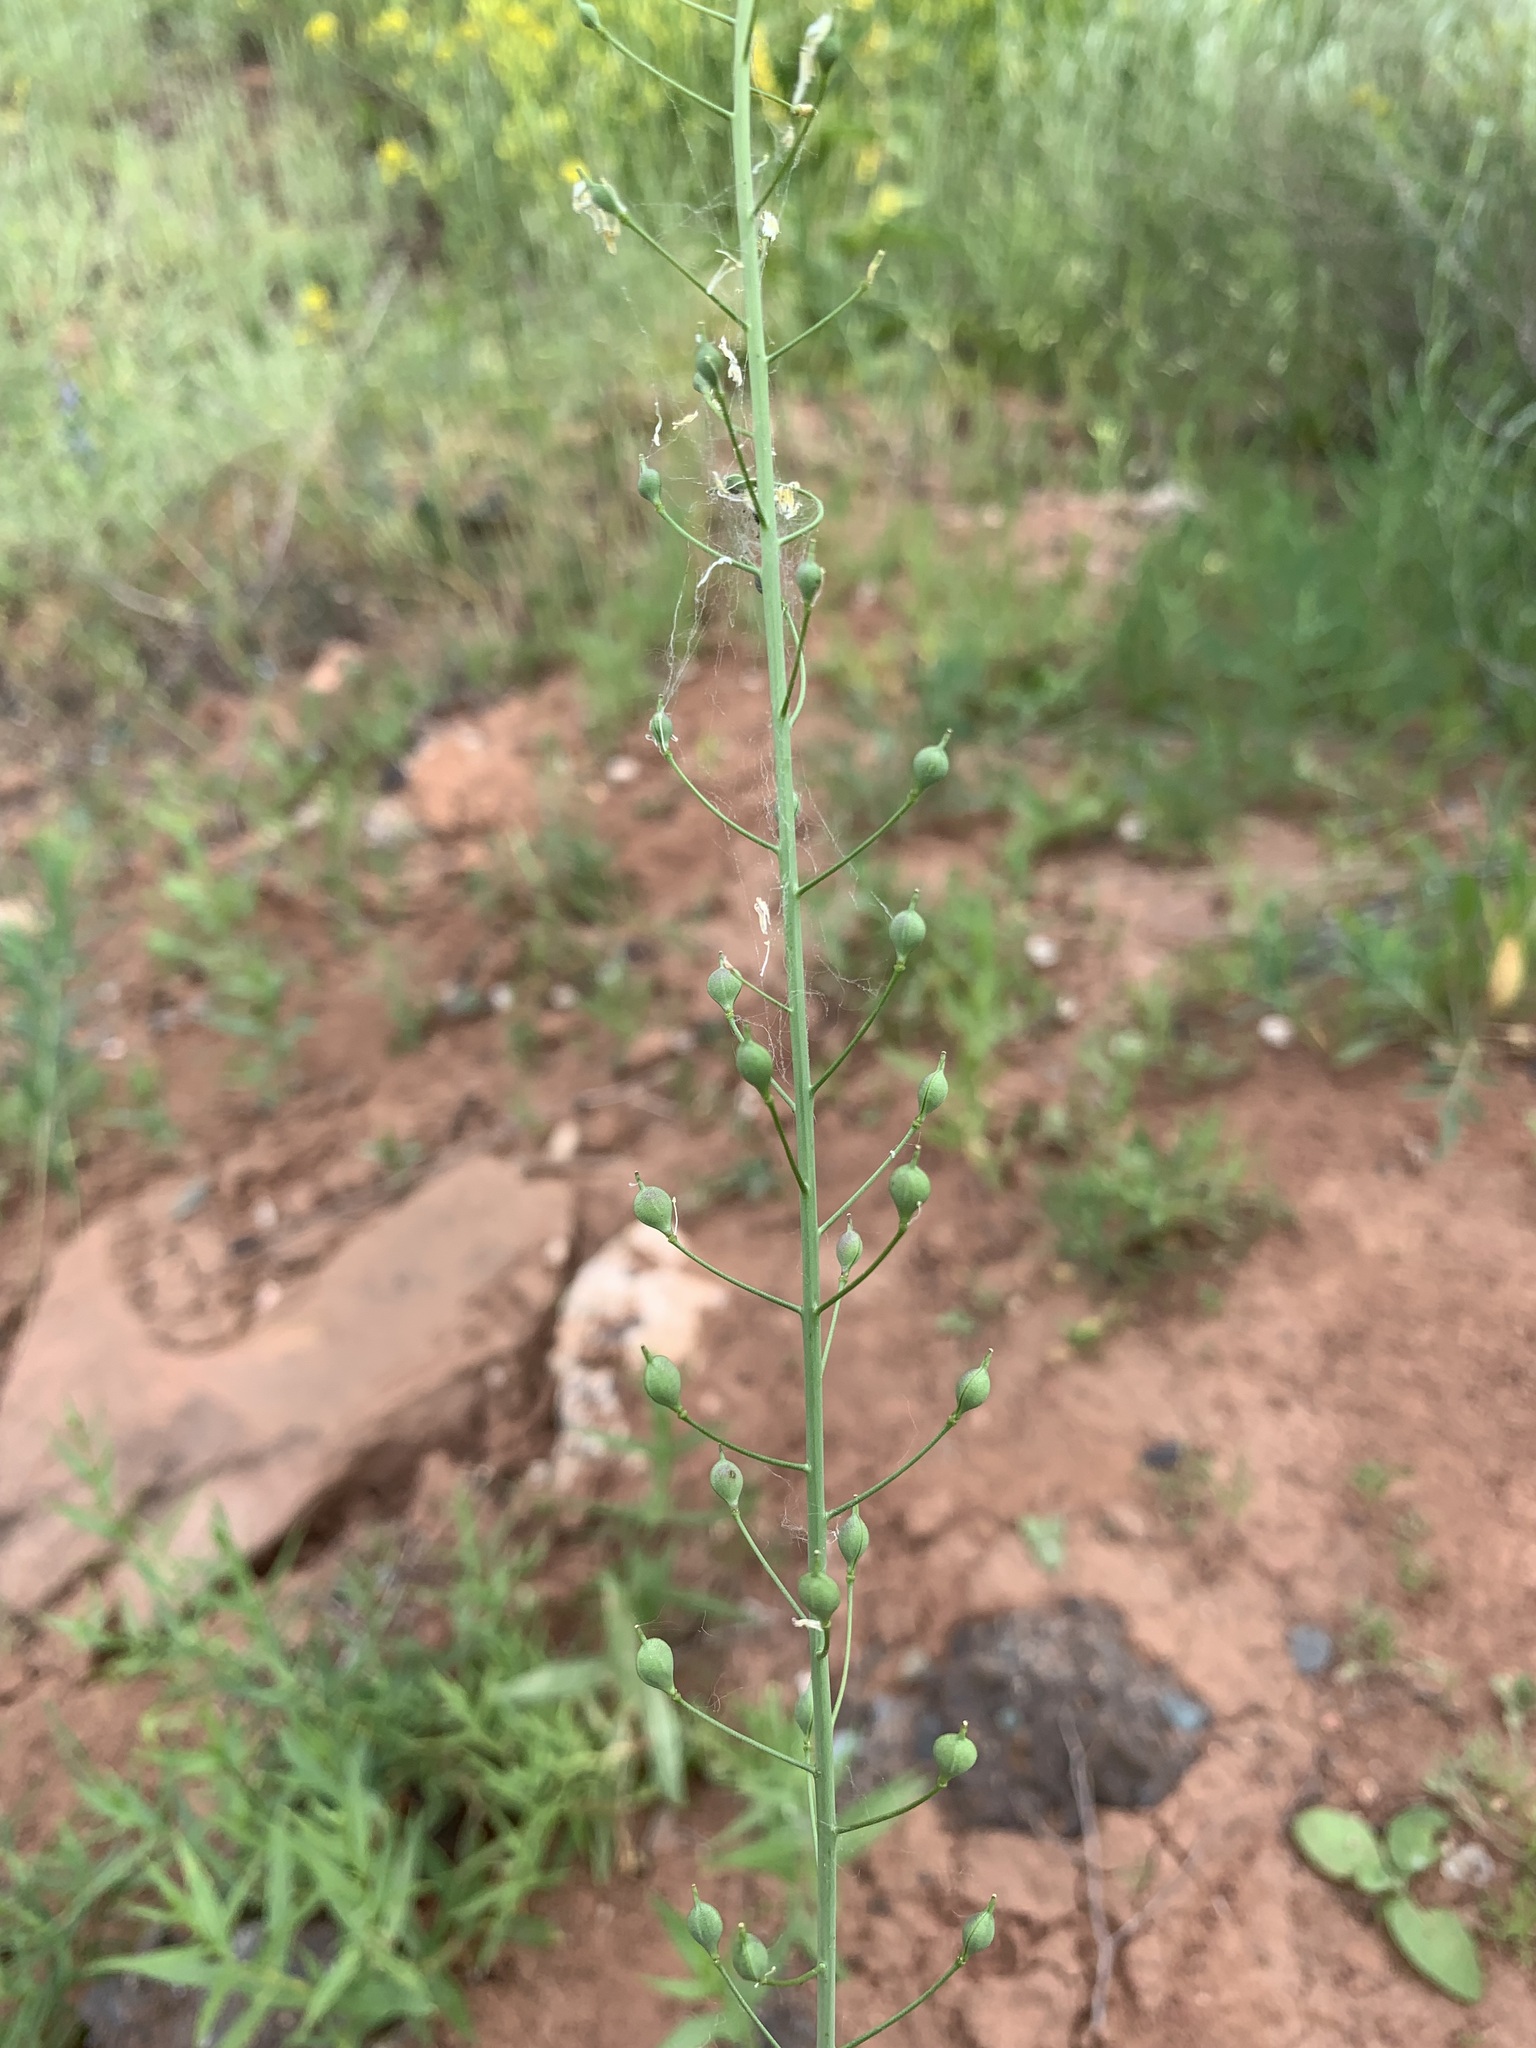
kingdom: Plantae
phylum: Tracheophyta
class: Magnoliopsida
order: Brassicales
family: Brassicaceae
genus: Camelina
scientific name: Camelina microcarpa
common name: Lesser gold-of-pleasure
